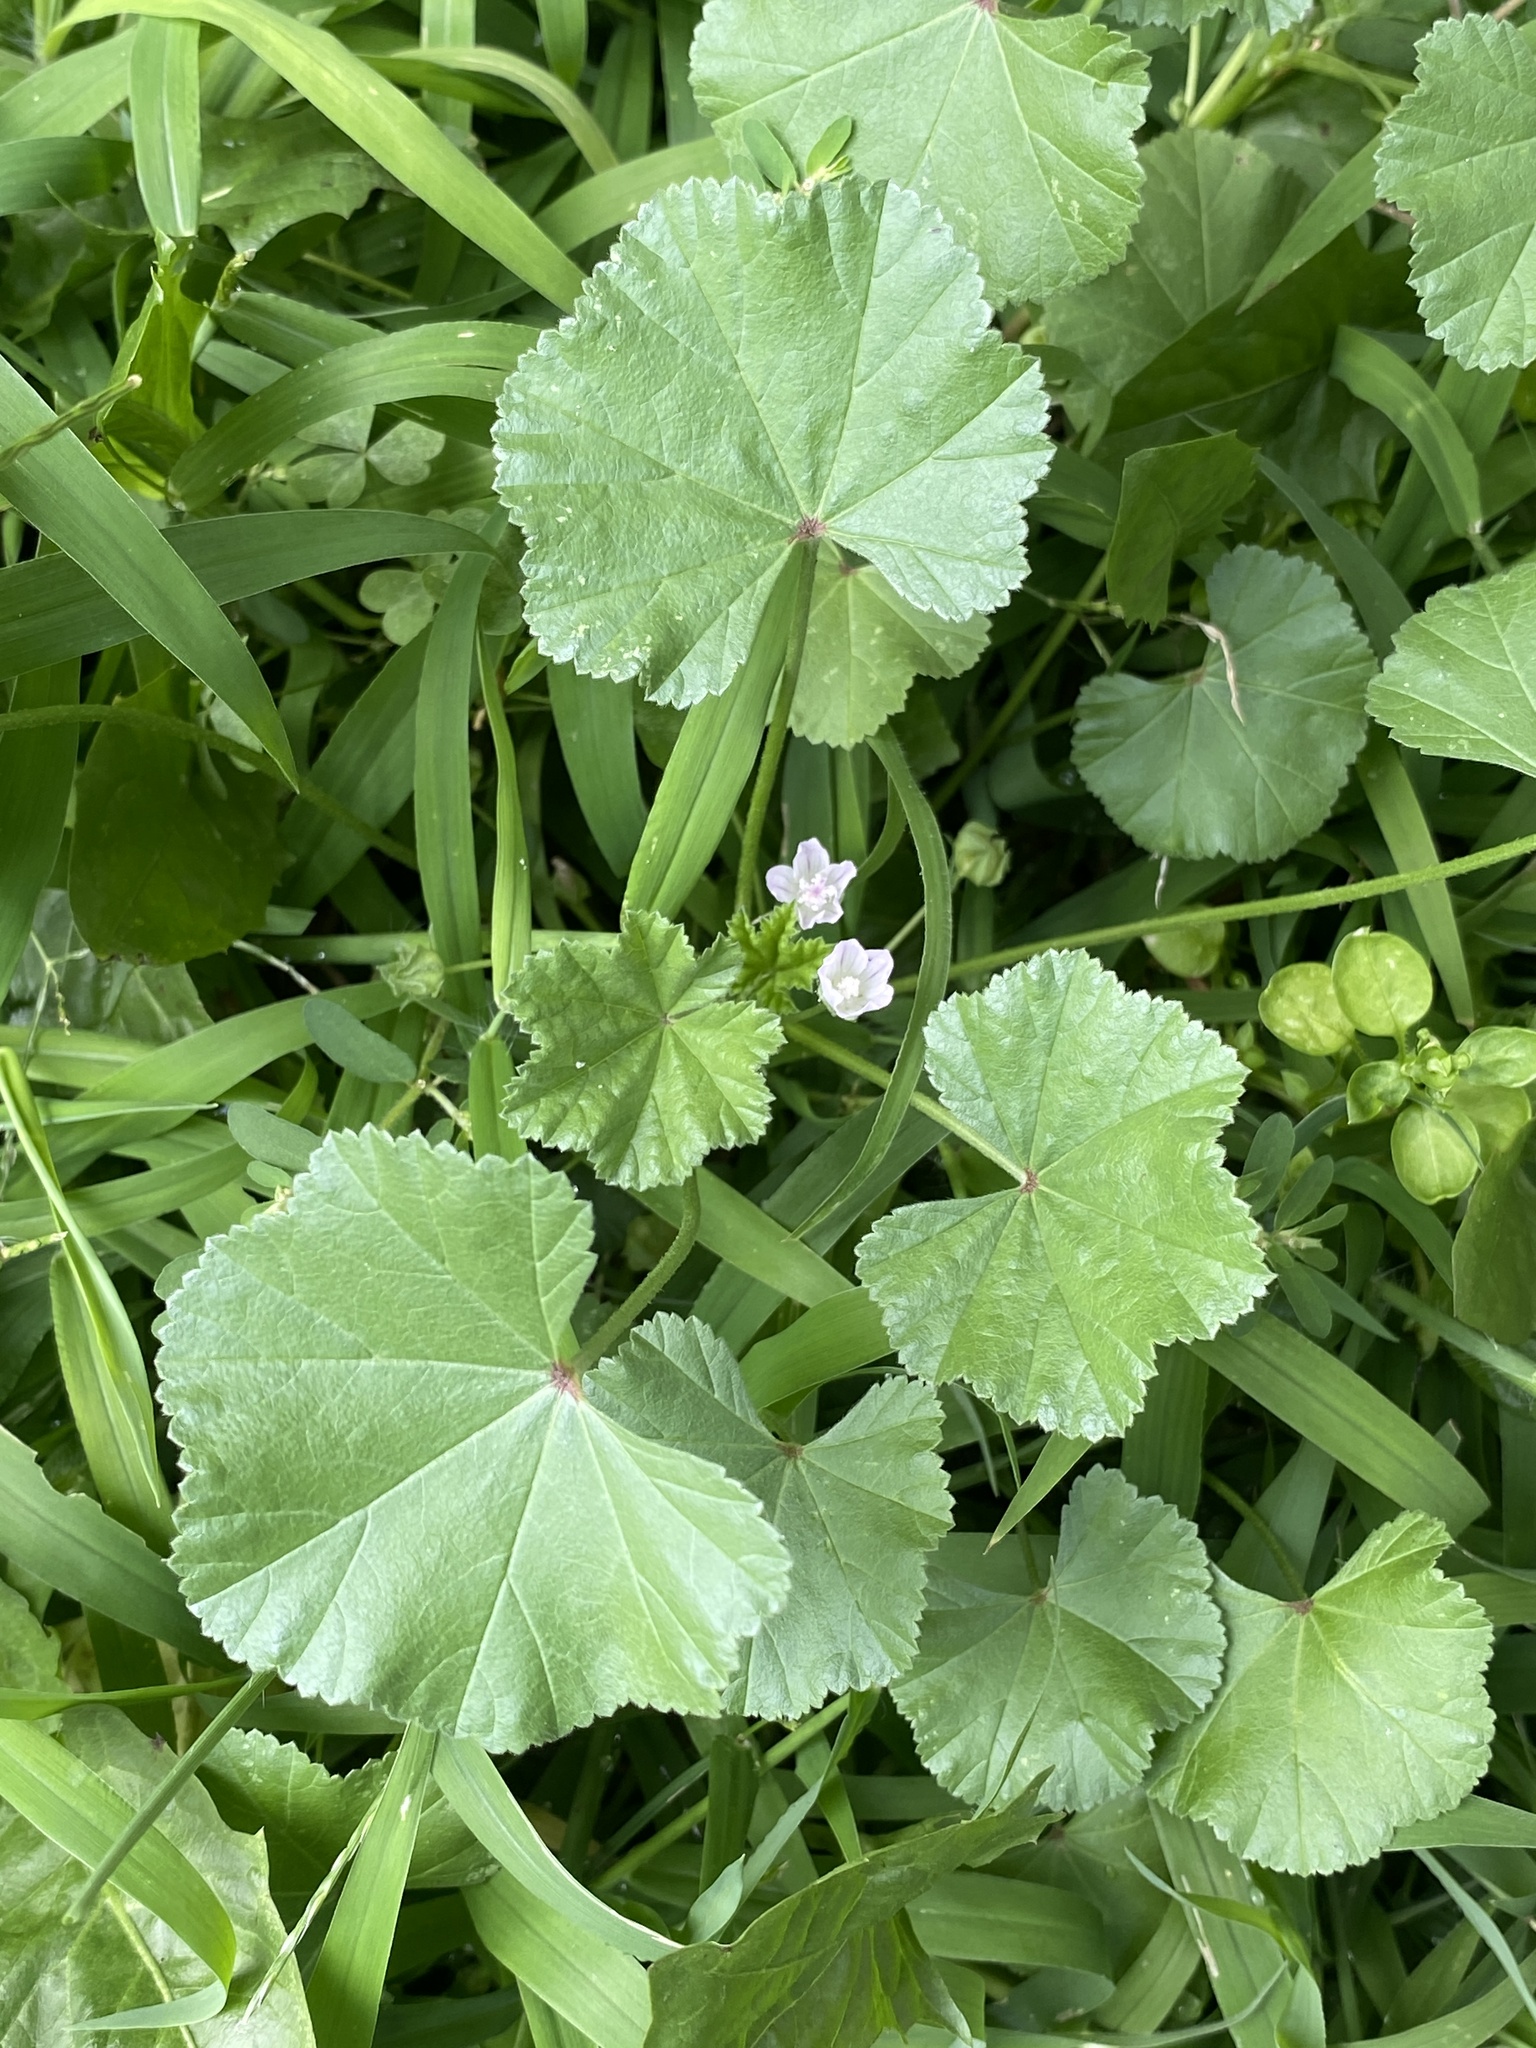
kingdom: Plantae
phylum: Tracheophyta
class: Magnoliopsida
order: Malvales
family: Malvaceae
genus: Malva
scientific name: Malva neglecta
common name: Common mallow
